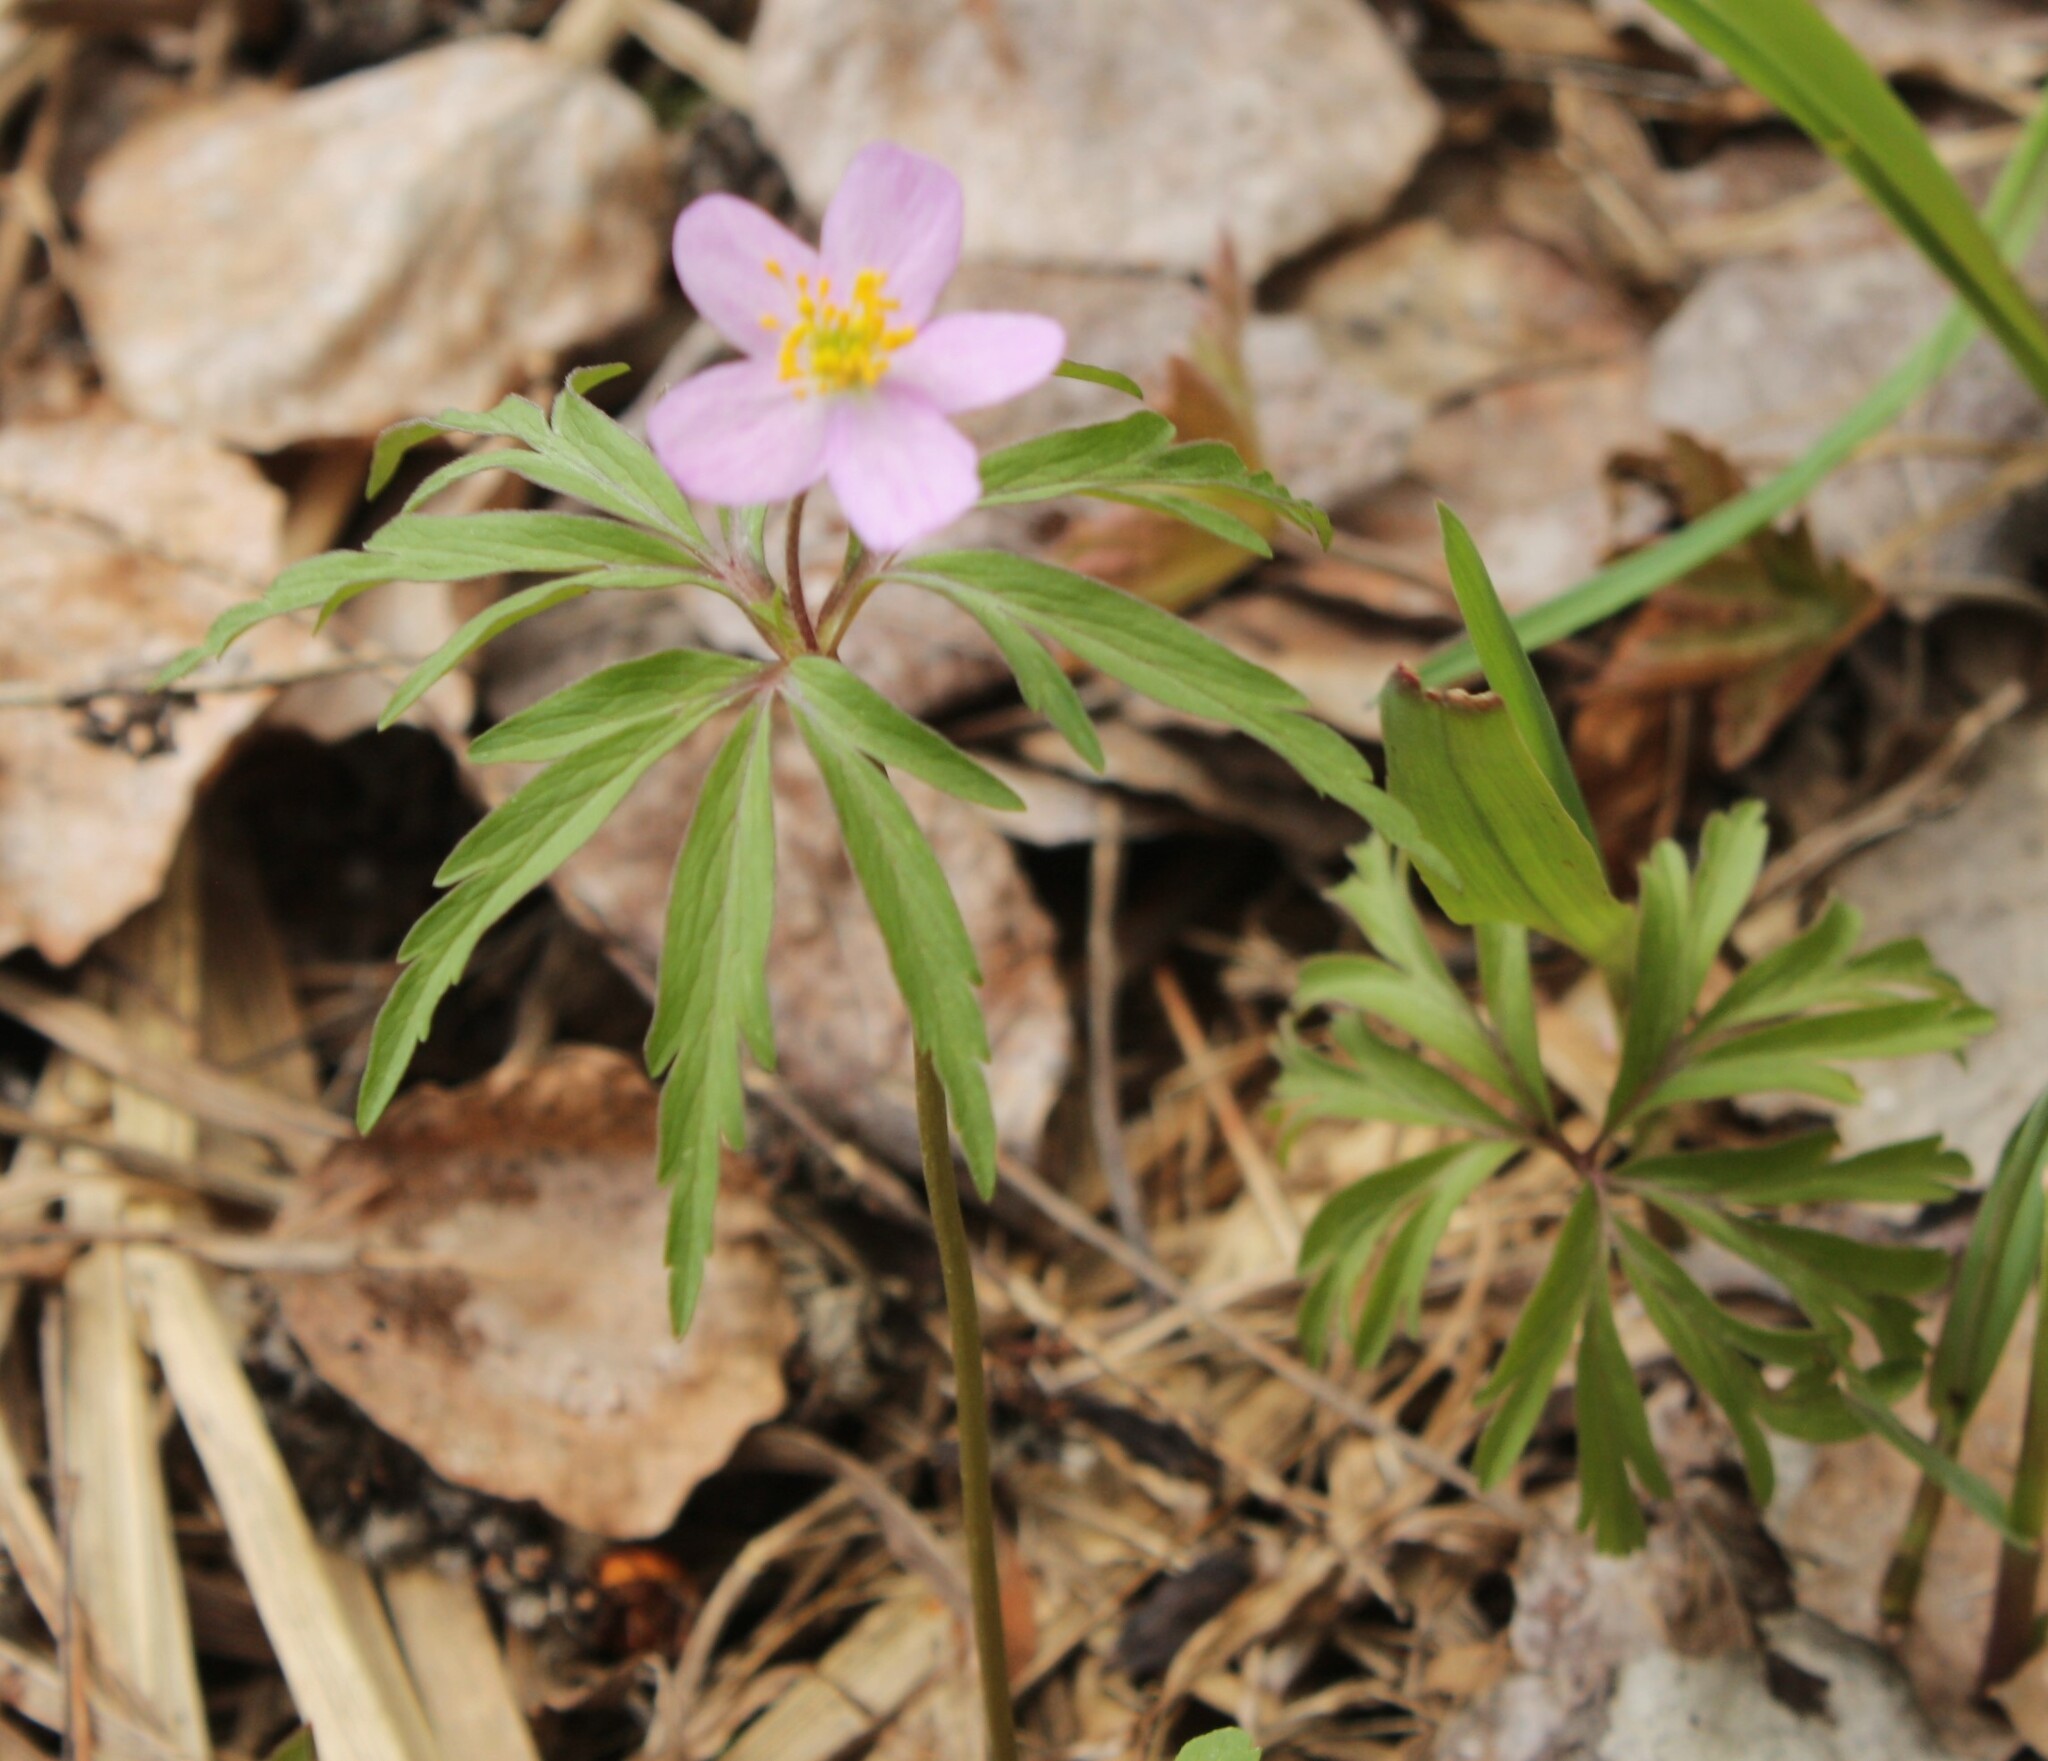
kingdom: Plantae
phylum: Tracheophyta
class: Magnoliopsida
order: Ranunculales
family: Ranunculaceae
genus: Anemone
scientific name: Anemone caerulea
